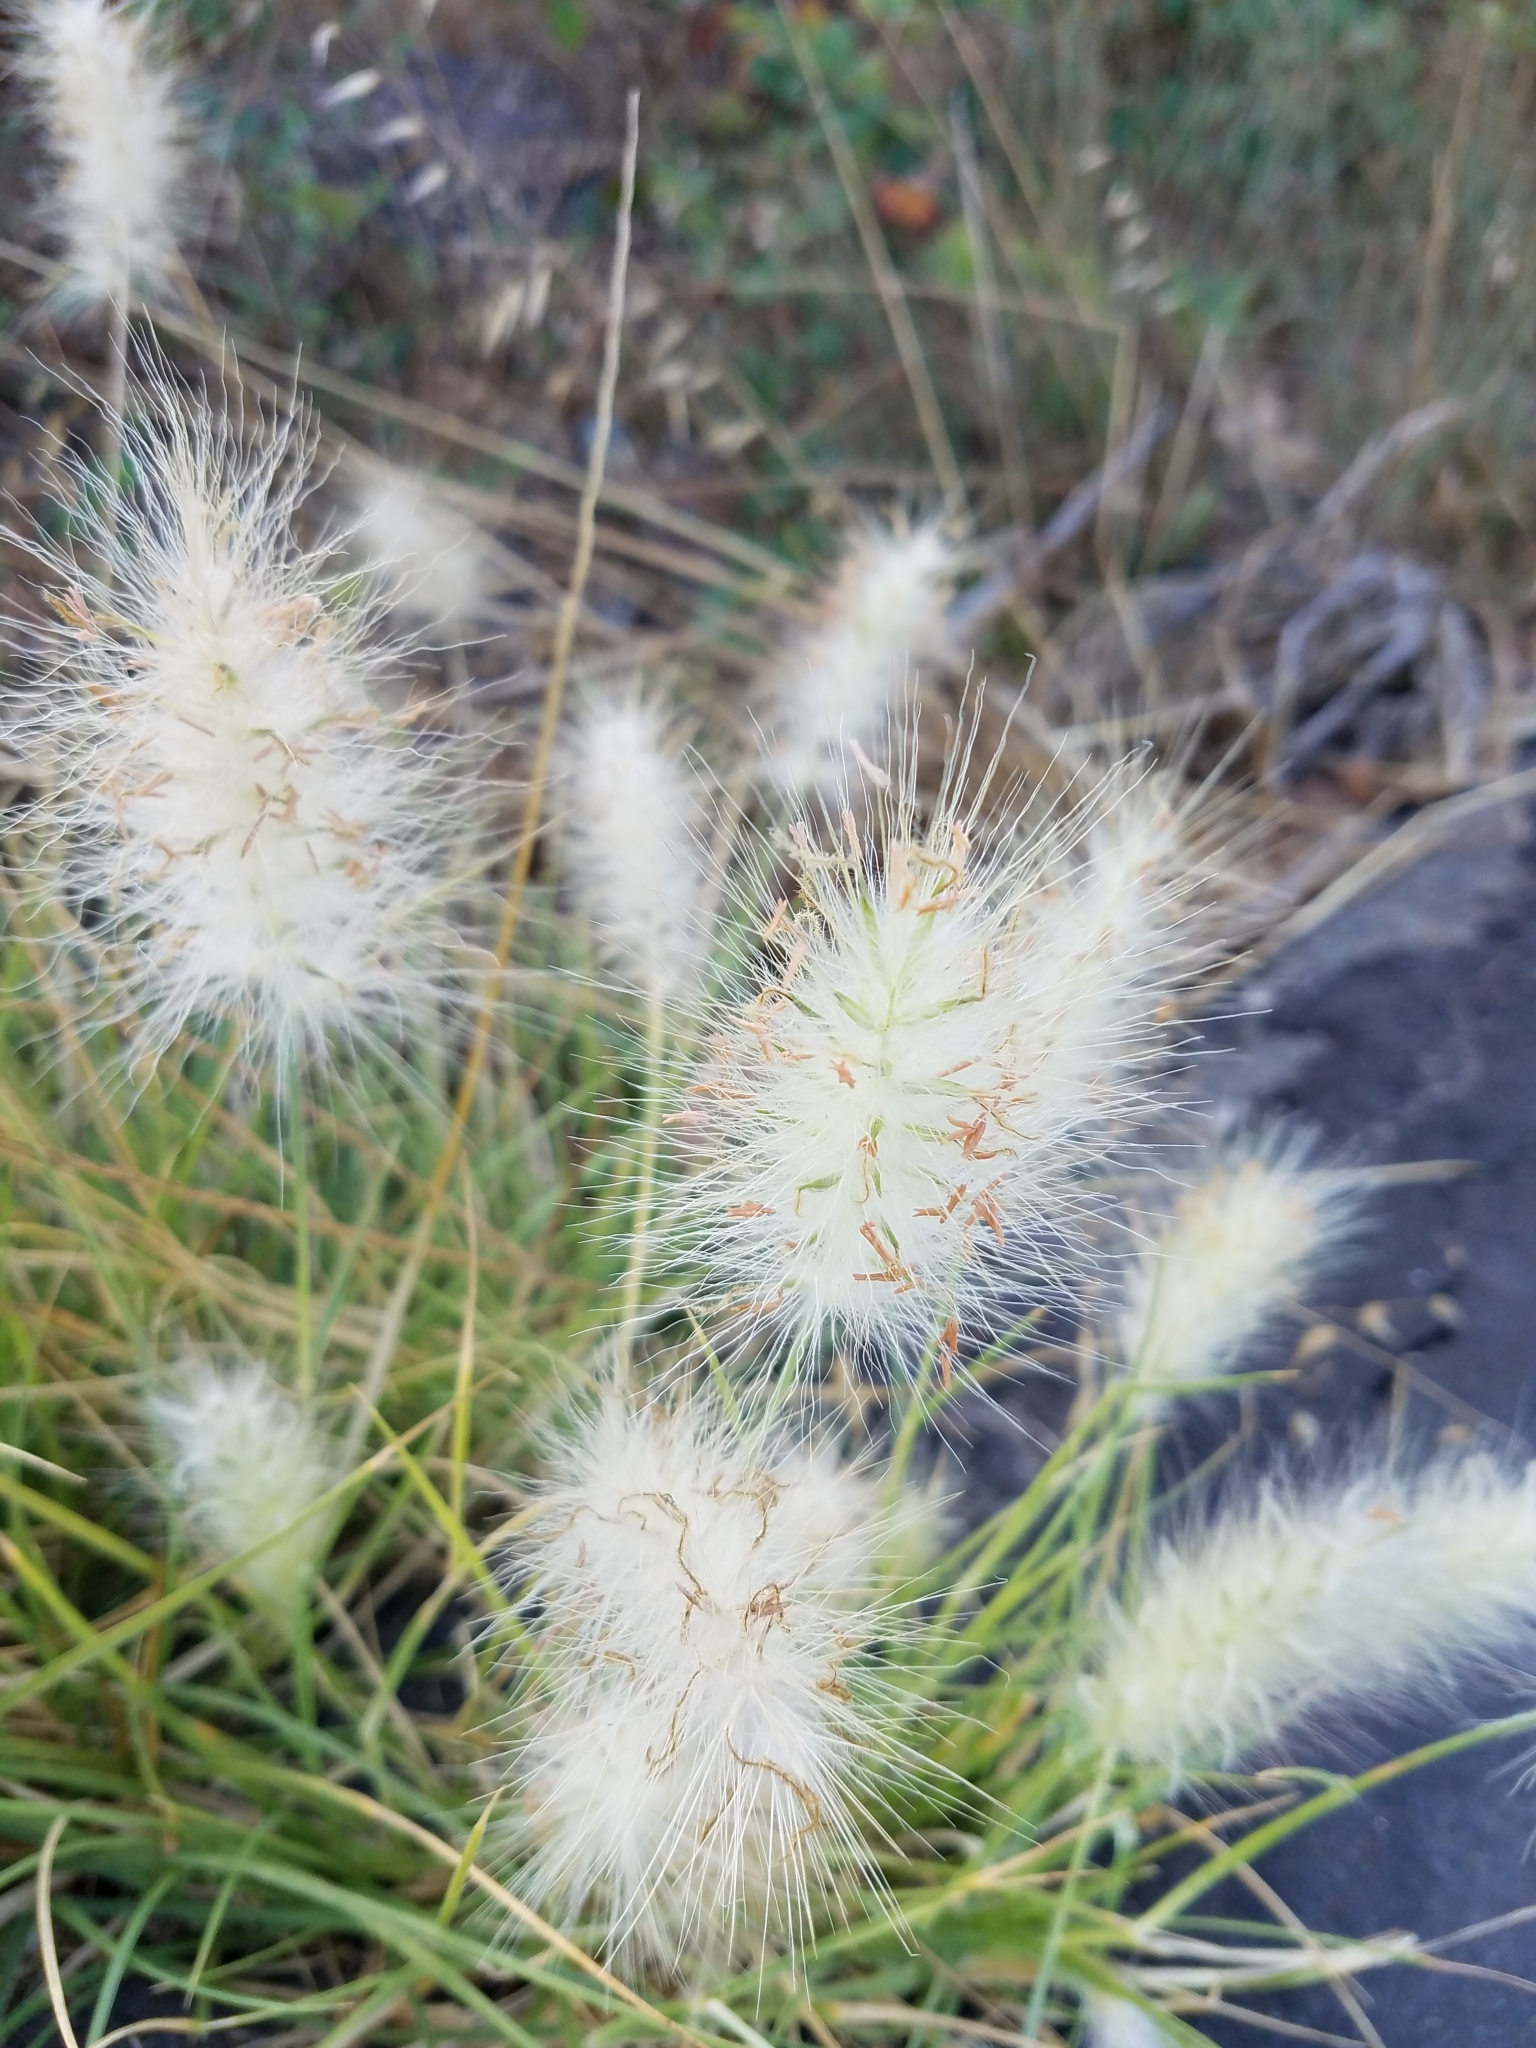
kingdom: Plantae
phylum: Tracheophyta
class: Liliopsida
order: Poales
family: Poaceae
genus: Cenchrus
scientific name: Cenchrus longisetus
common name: Feathertop
